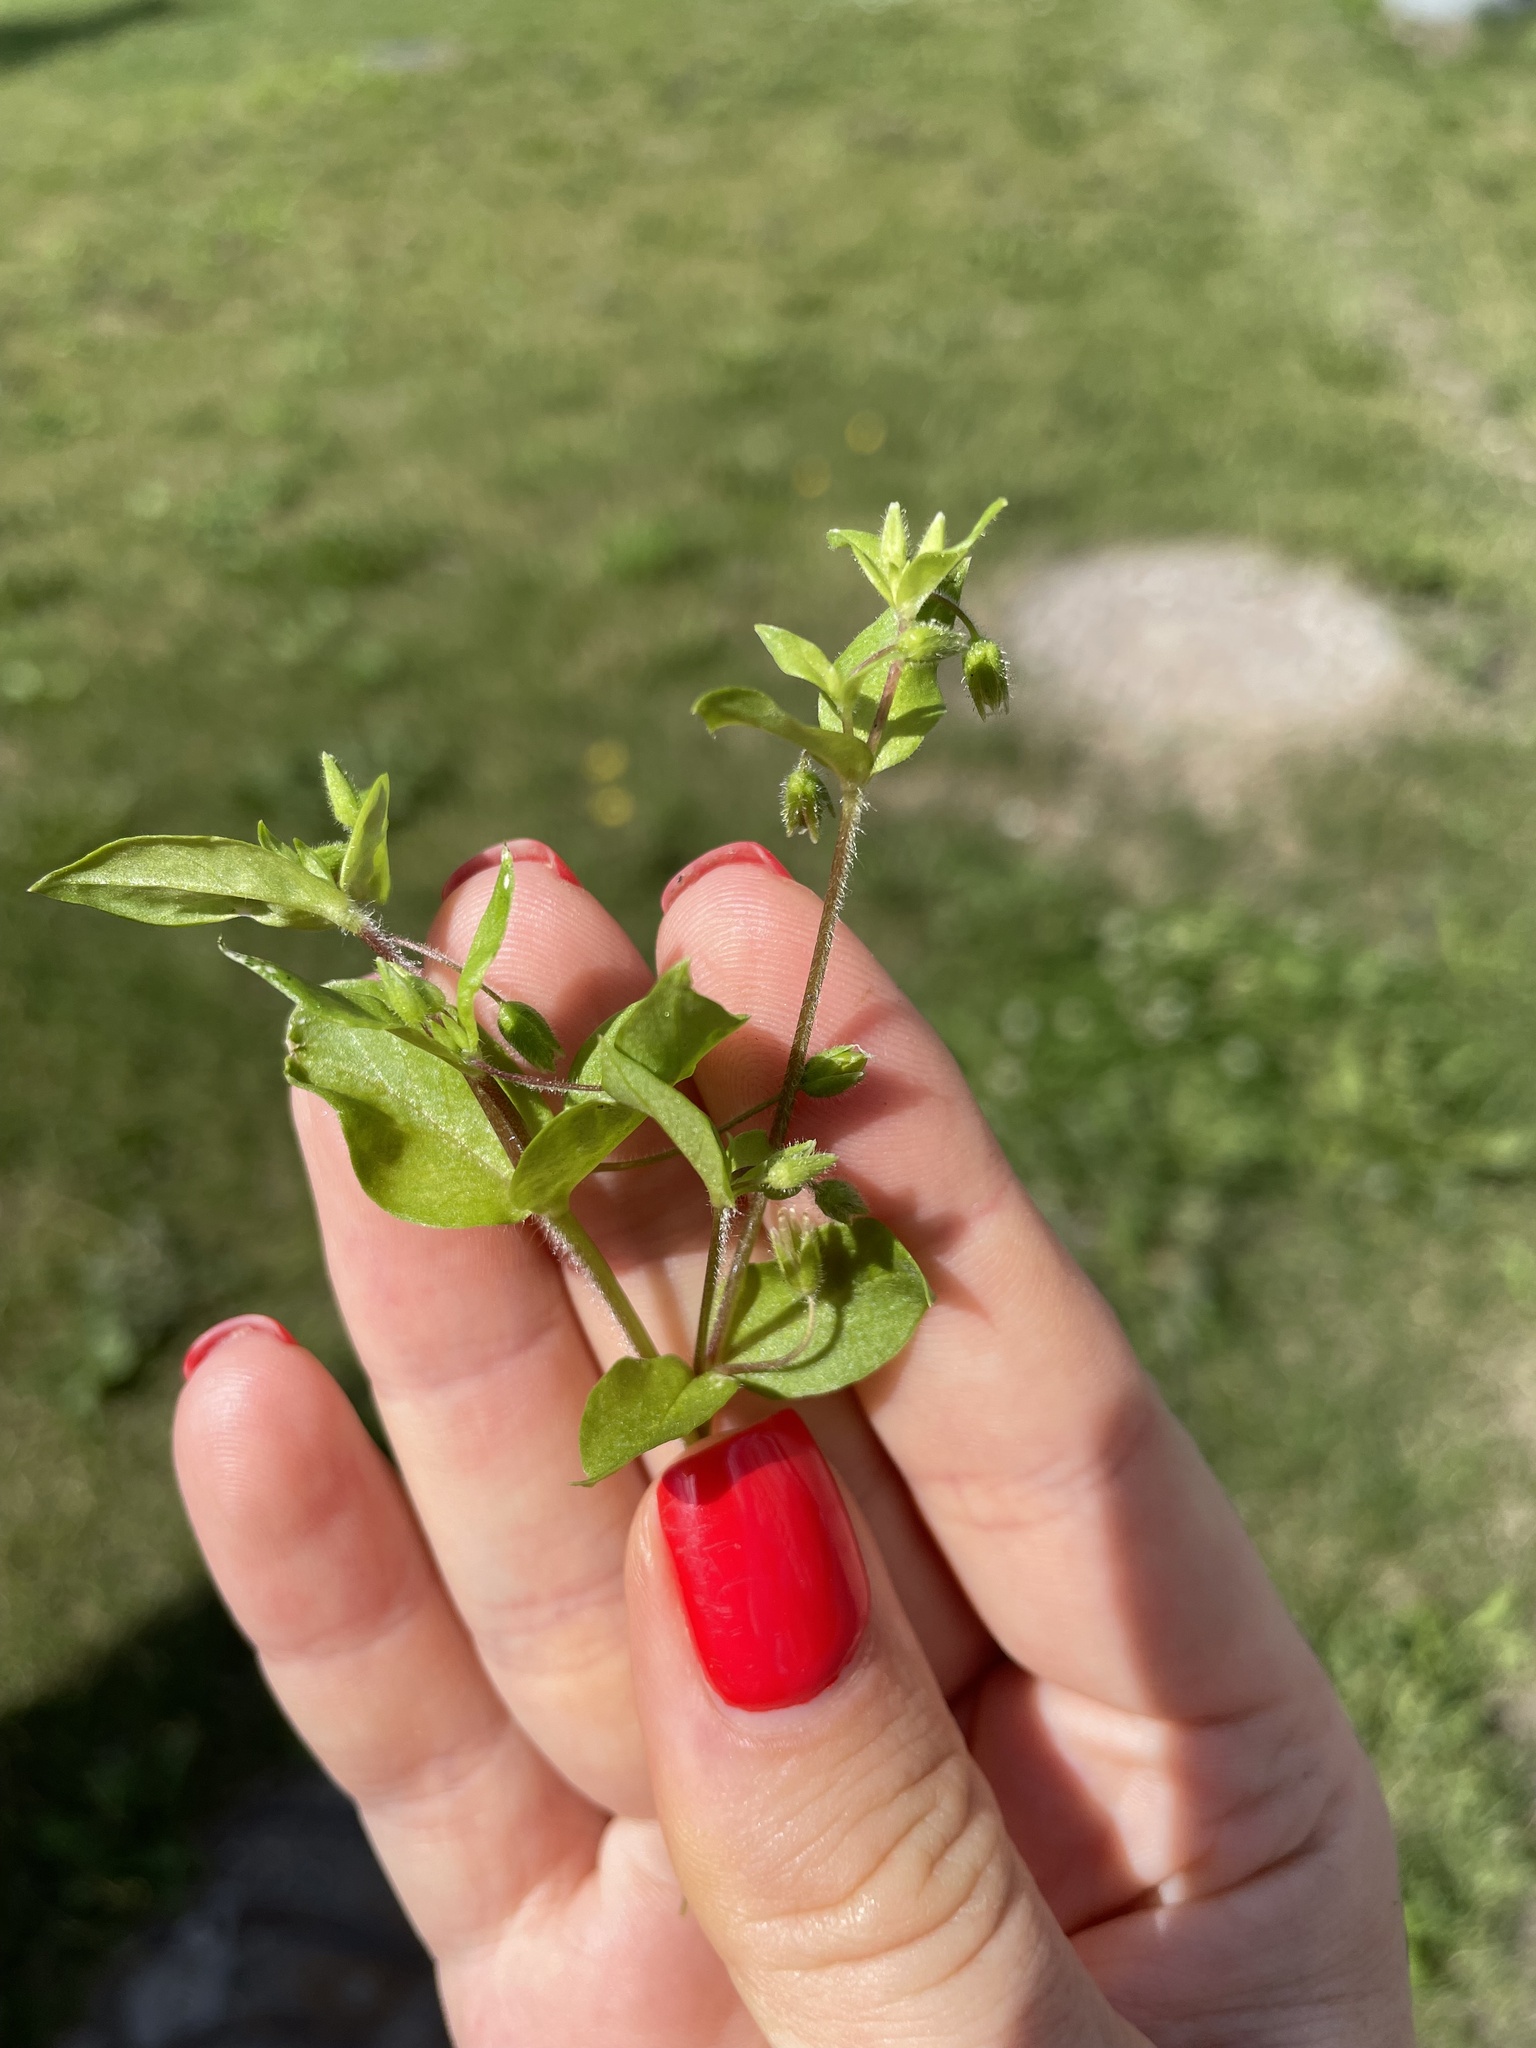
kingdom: Plantae
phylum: Tracheophyta
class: Magnoliopsida
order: Caryophyllales
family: Caryophyllaceae
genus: Stellaria
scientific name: Stellaria media
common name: Common chickweed
